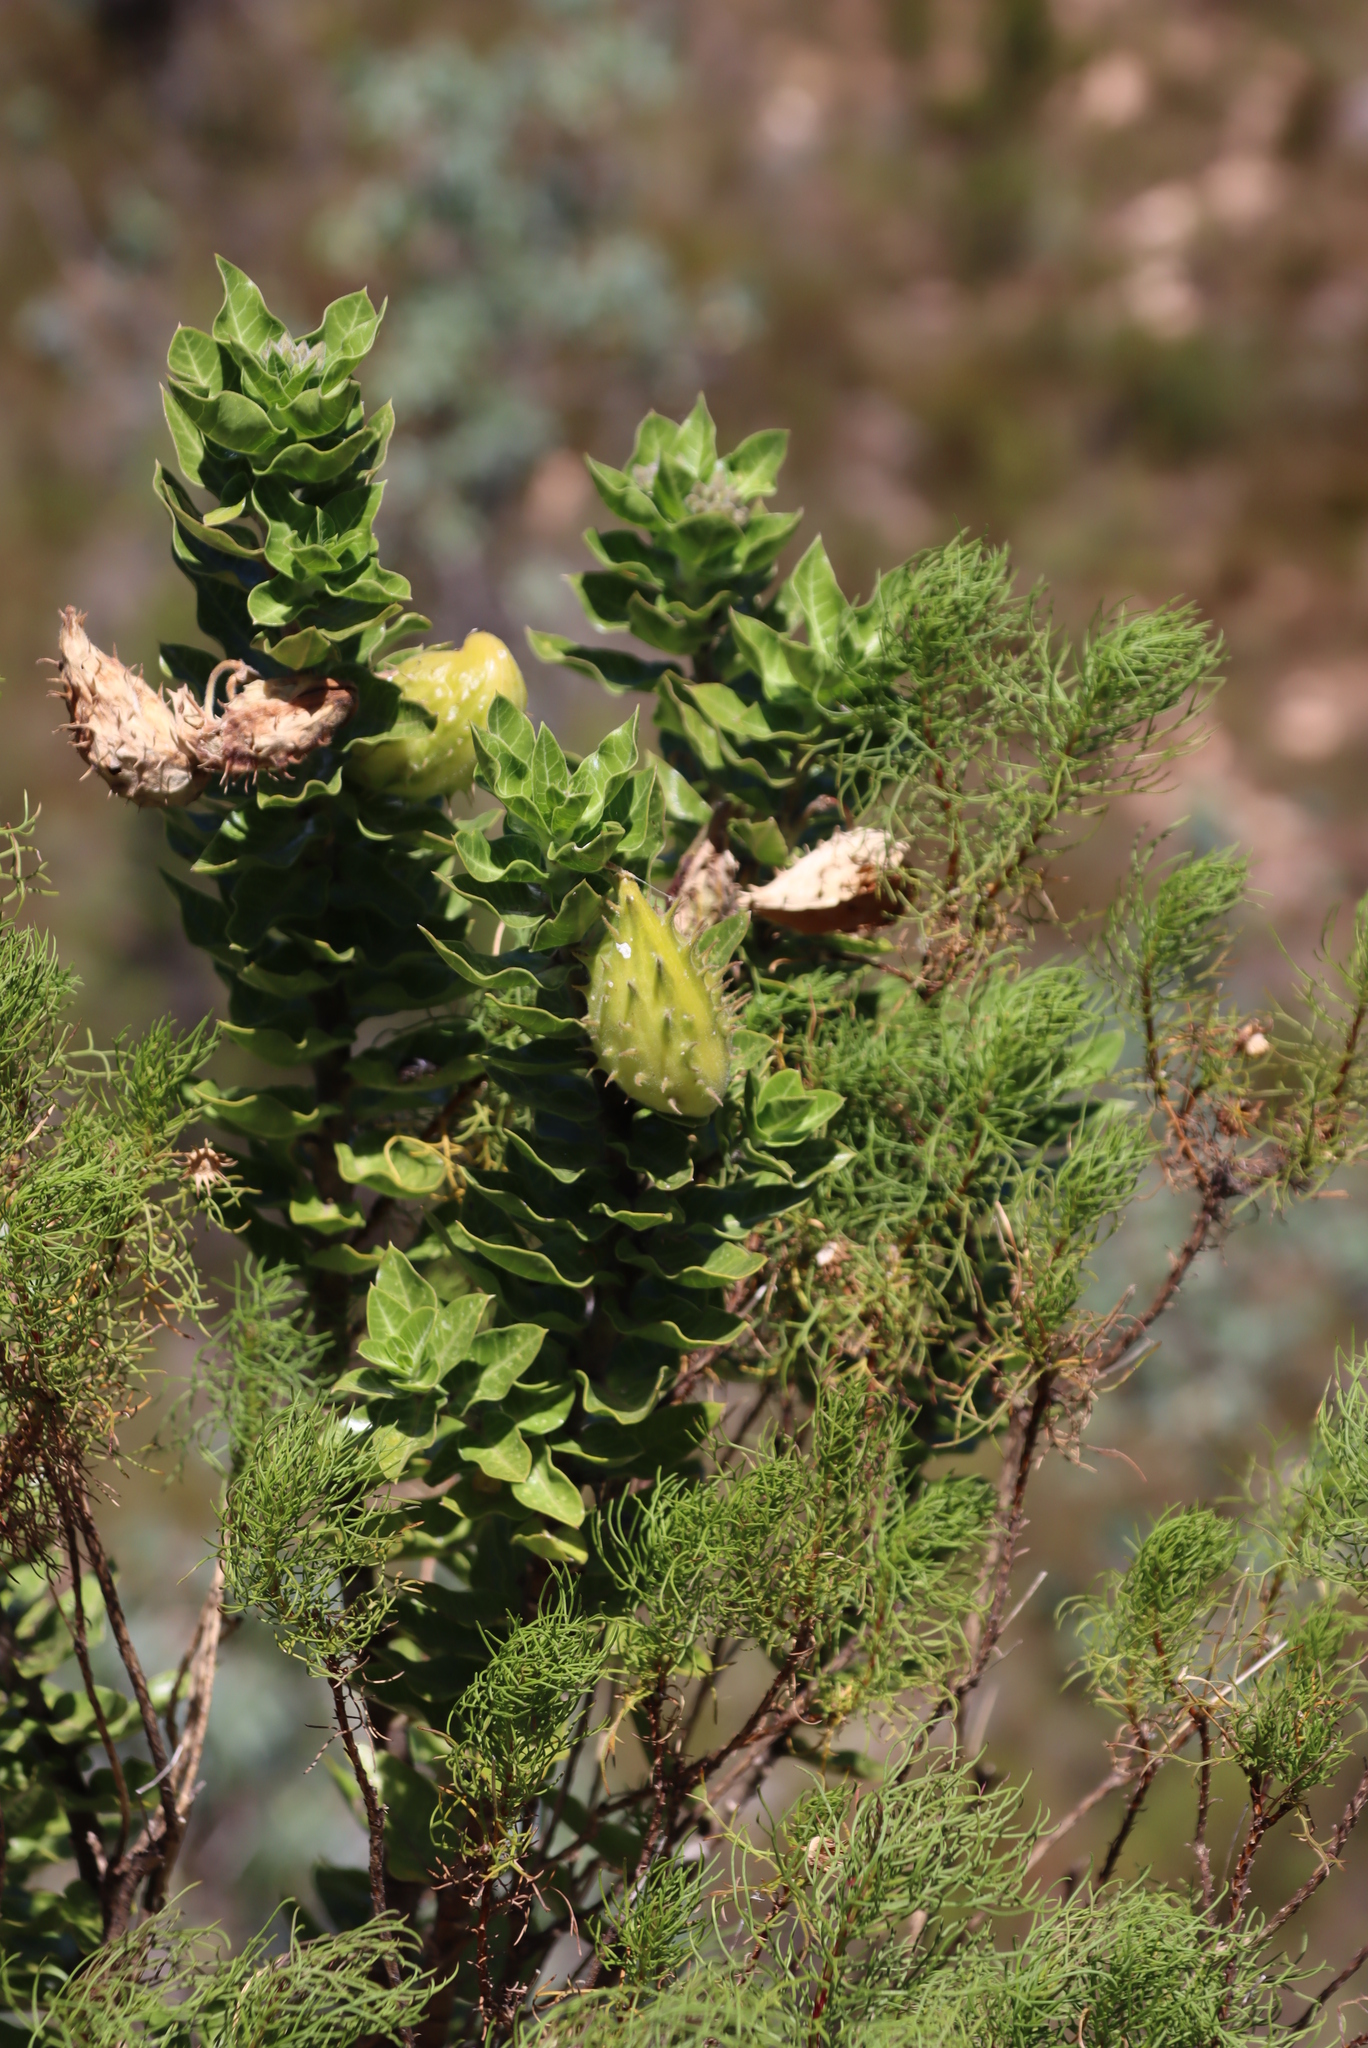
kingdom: Plantae
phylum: Tracheophyta
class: Magnoliopsida
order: Gentianales
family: Apocynaceae
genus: Gomphocarpus
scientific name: Gomphocarpus cancellatus
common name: Wild cotton
